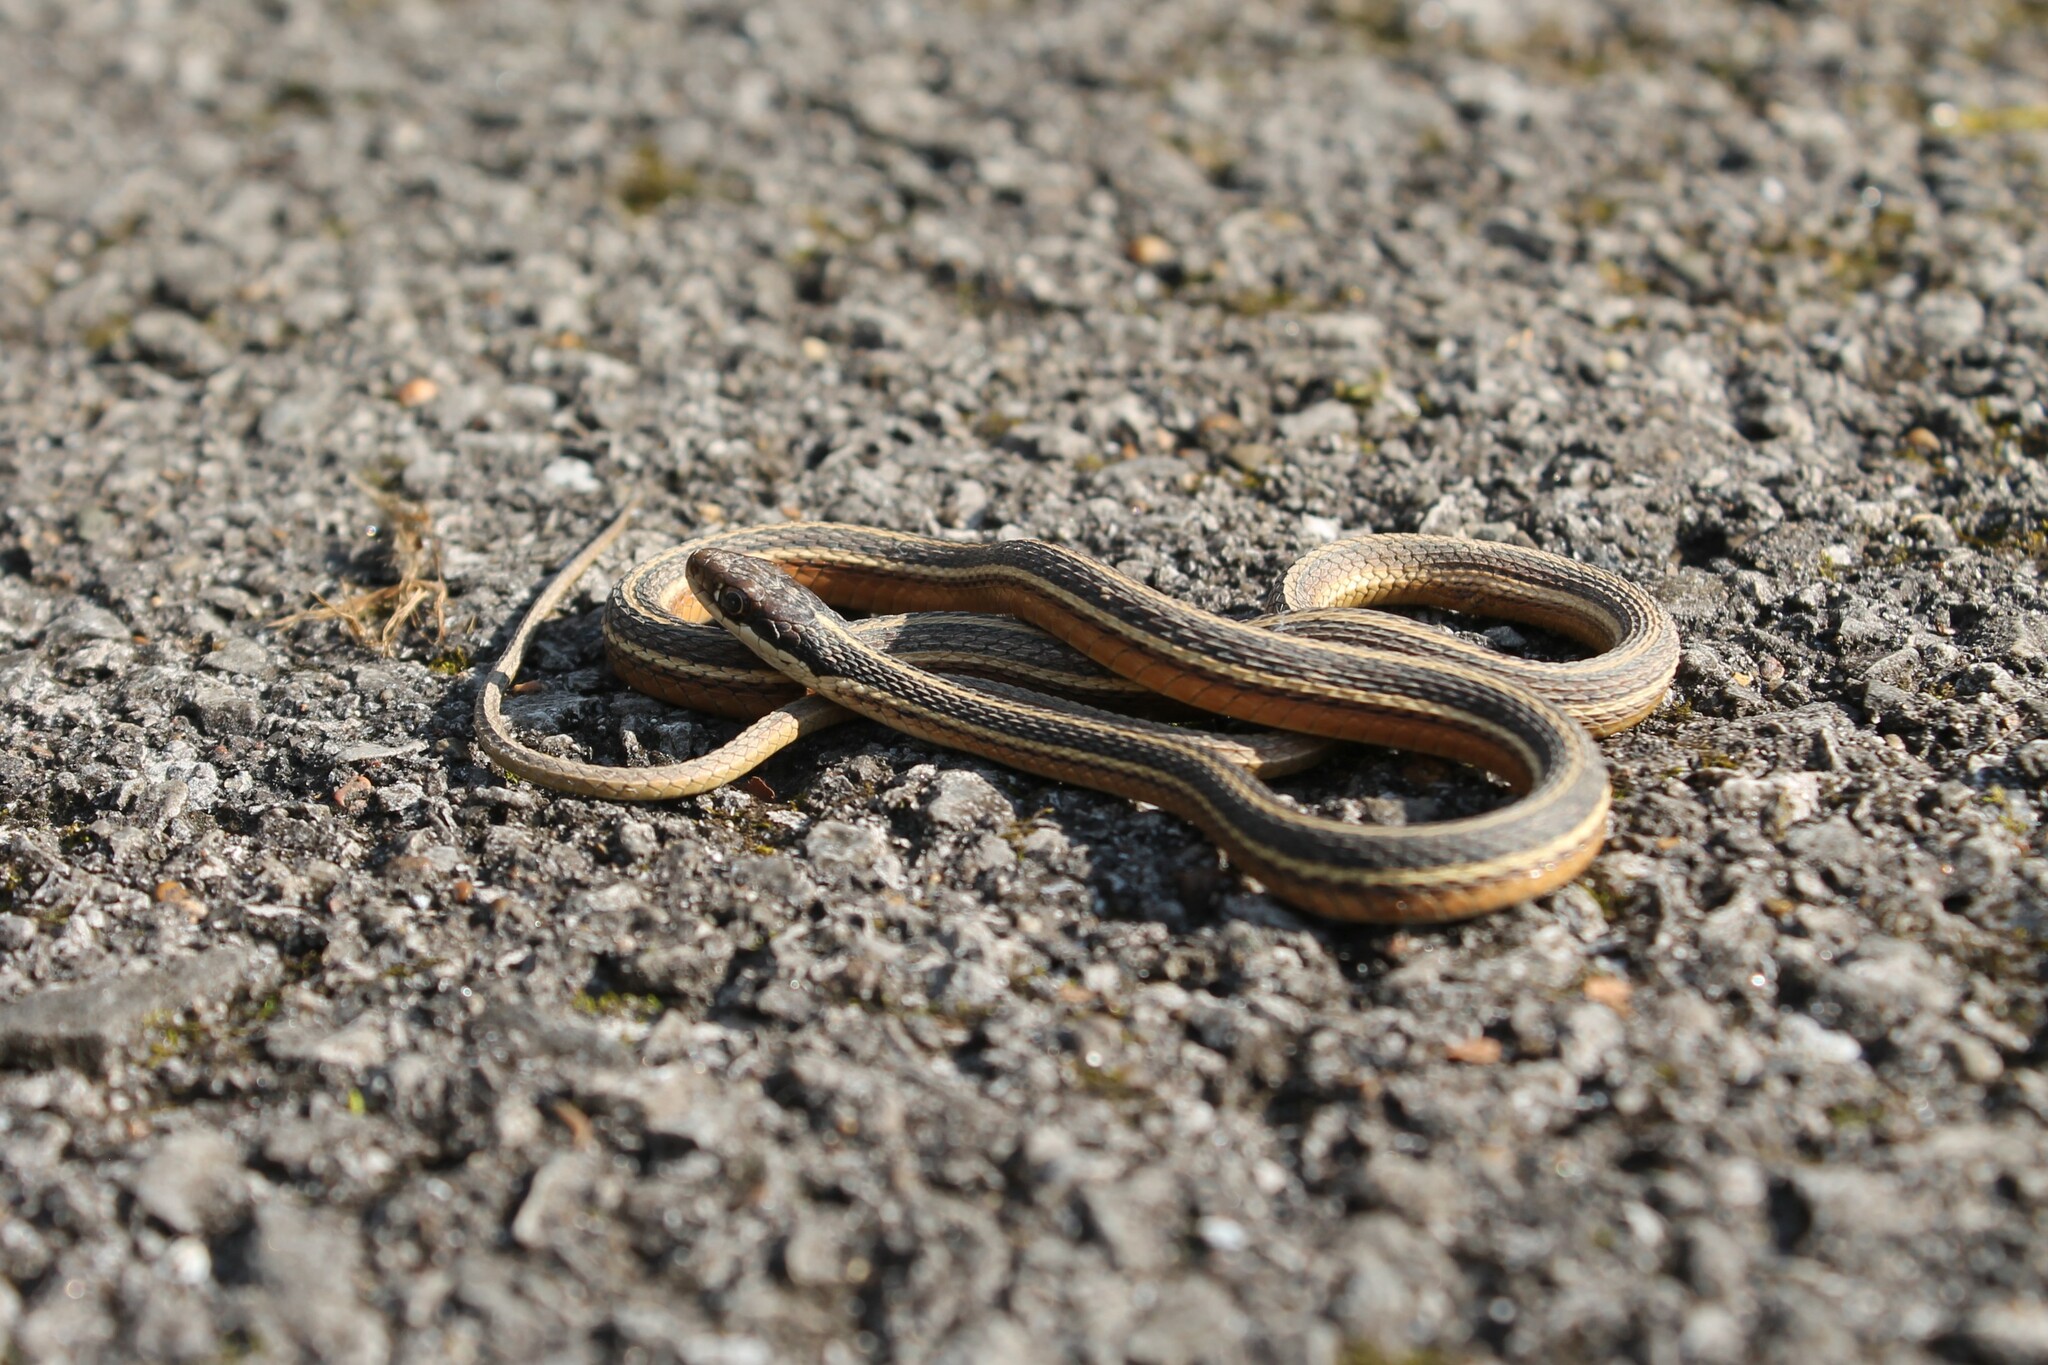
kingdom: Animalia
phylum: Chordata
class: Squamata
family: Colubridae
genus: Thamnophis
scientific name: Thamnophis saurita
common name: Eastern ribbonsnake
